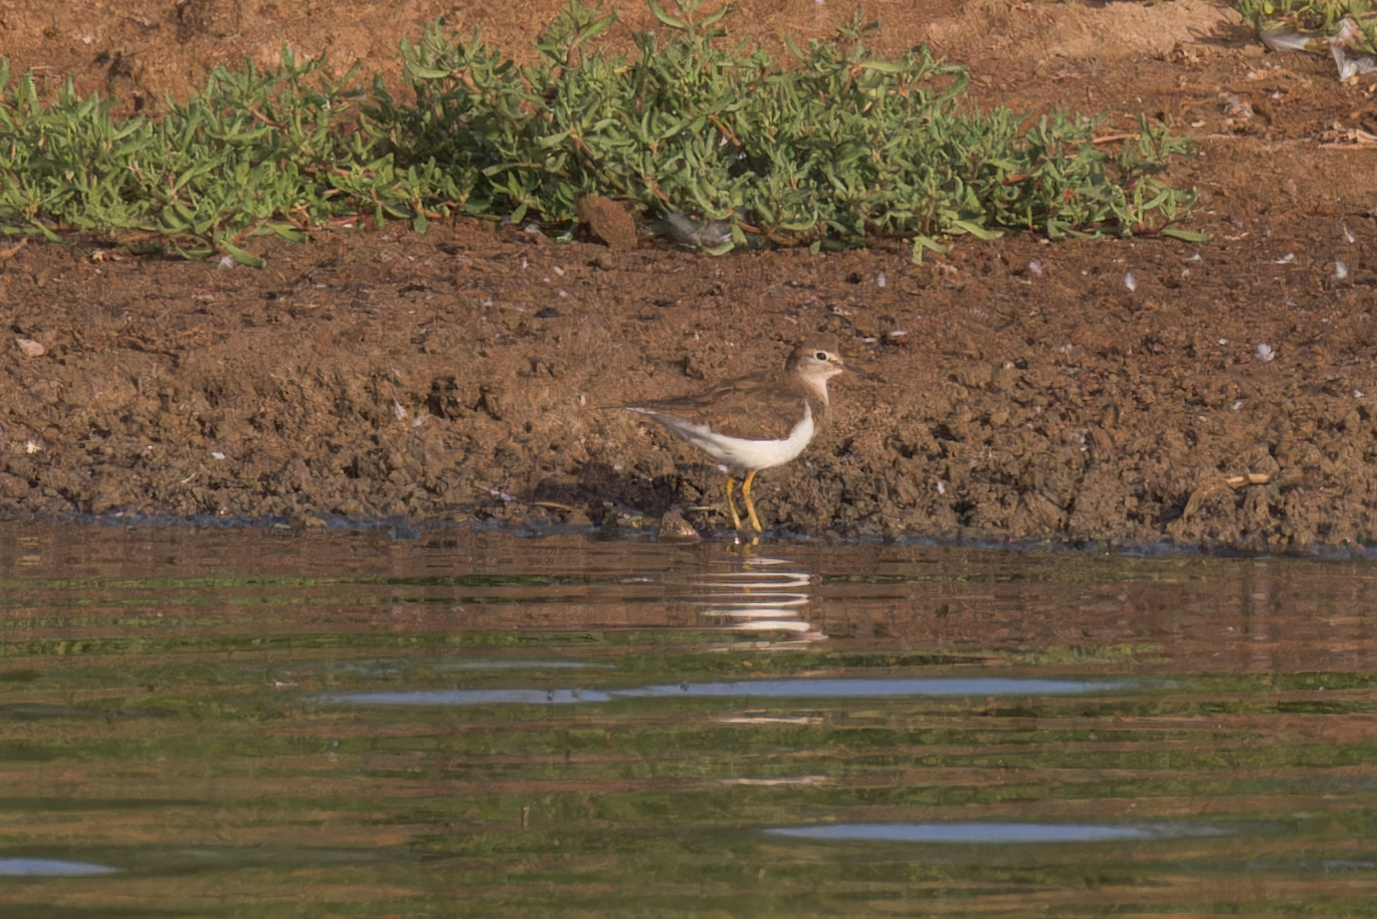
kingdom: Animalia
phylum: Chordata
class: Aves
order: Charadriiformes
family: Scolopacidae
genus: Actitis
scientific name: Actitis hypoleucos
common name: Common sandpiper
